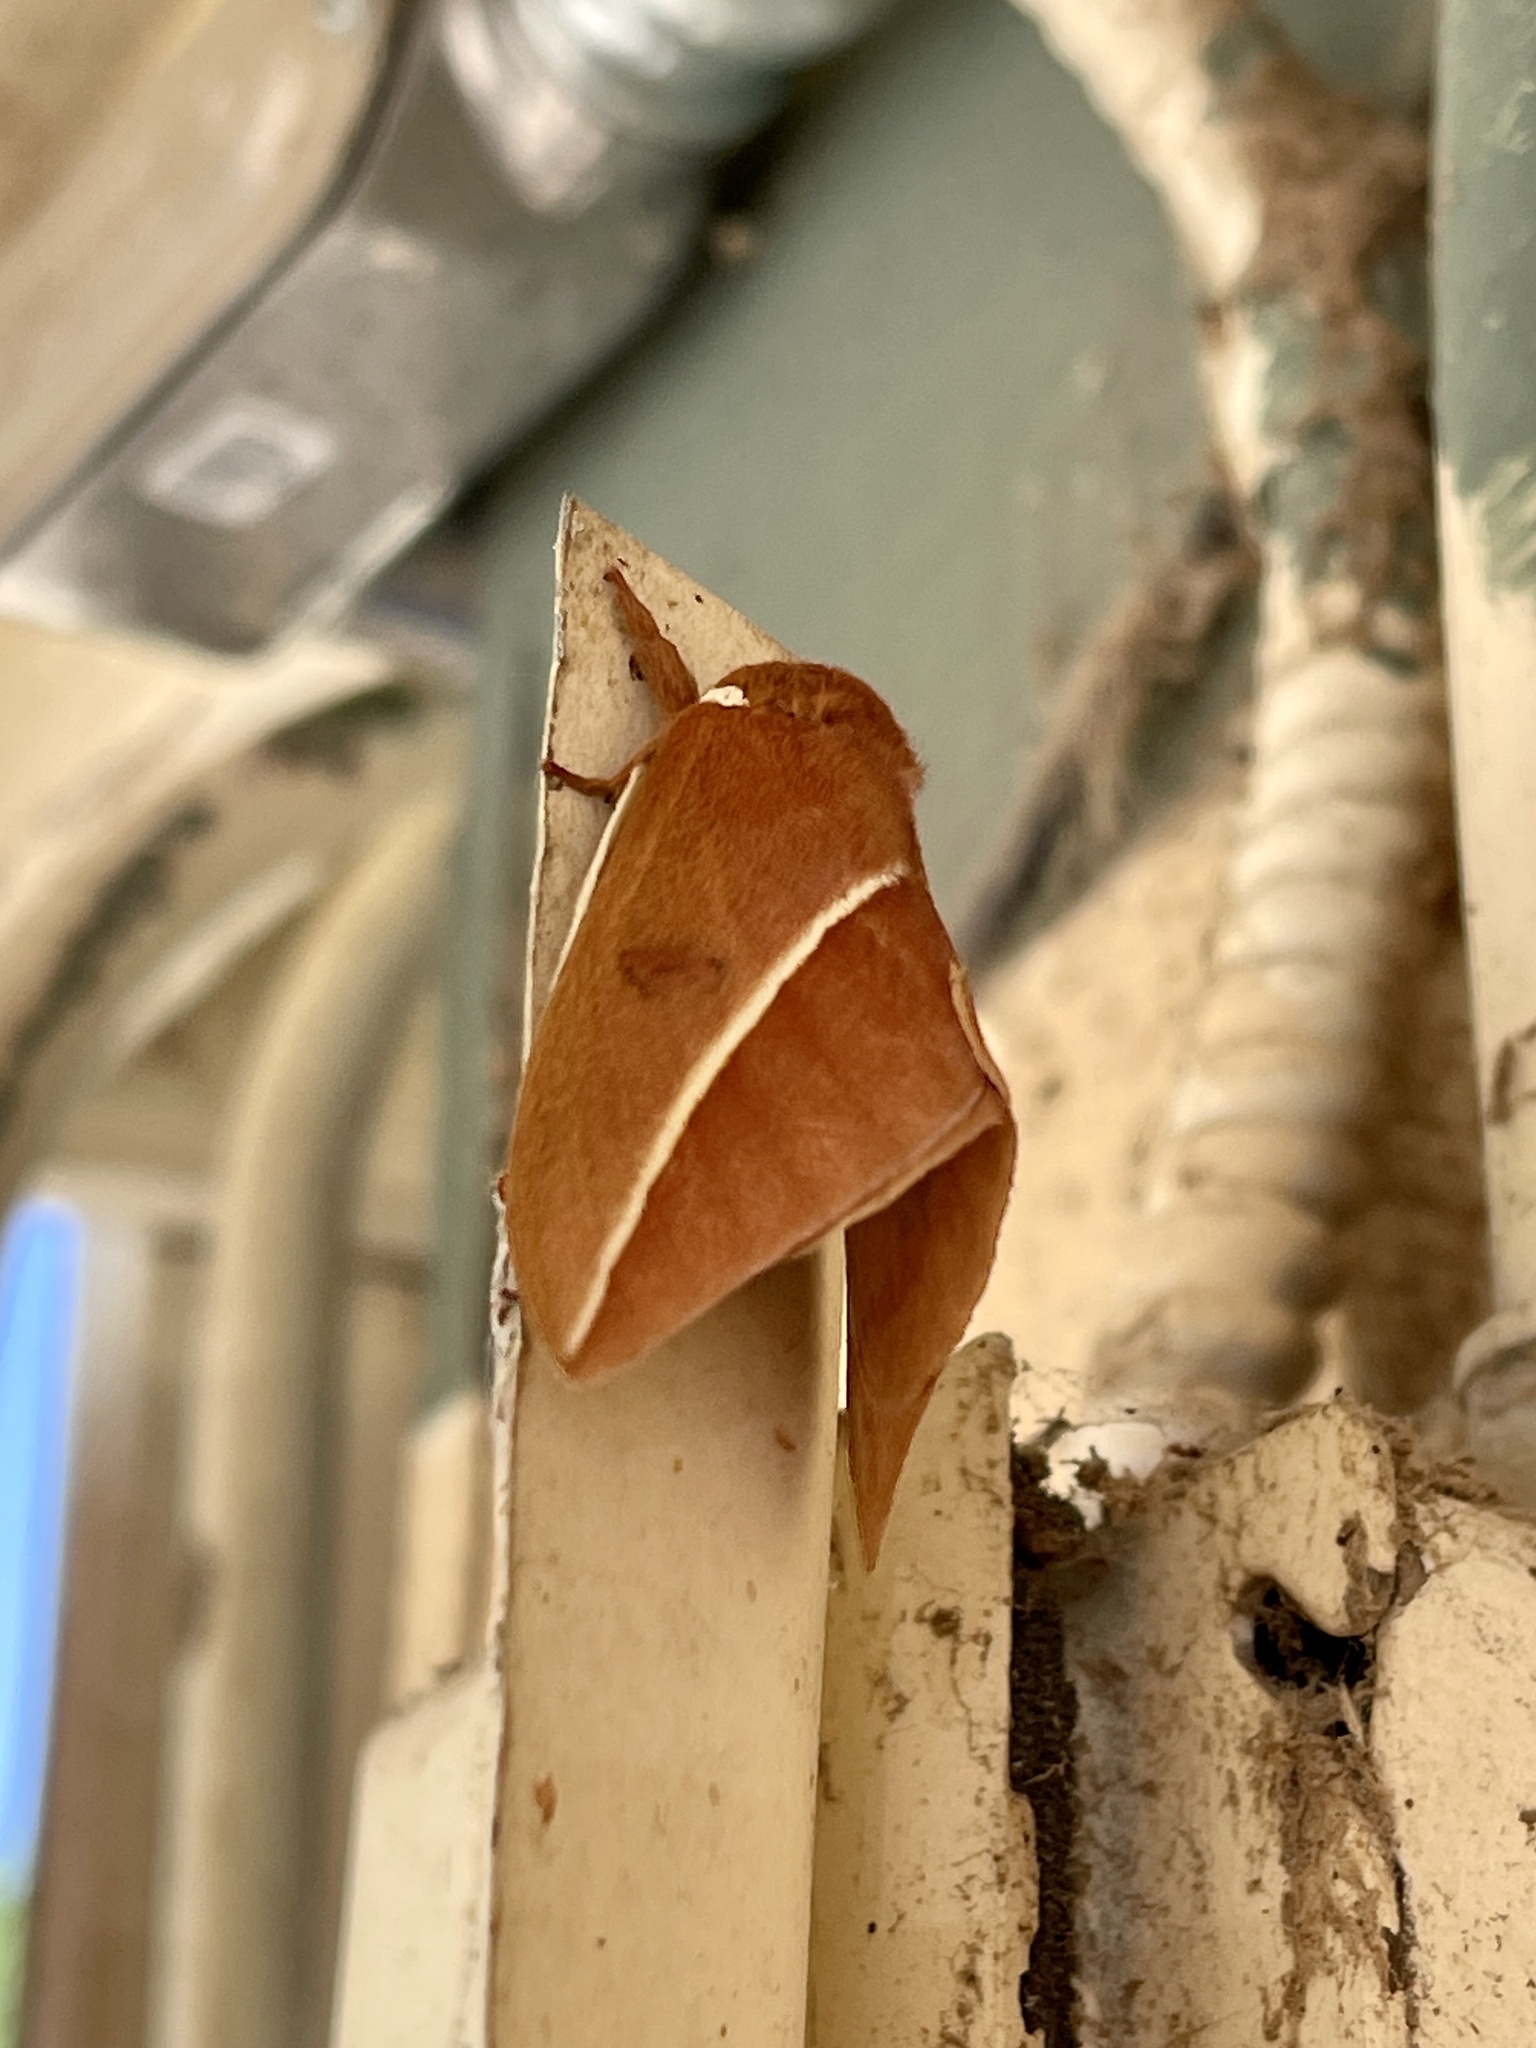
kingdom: Animalia
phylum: Arthropoda
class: Insecta
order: Lepidoptera
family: Saturniidae
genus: Automeris
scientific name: Automeris zephyria
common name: Zephyr eyed silkmoth
